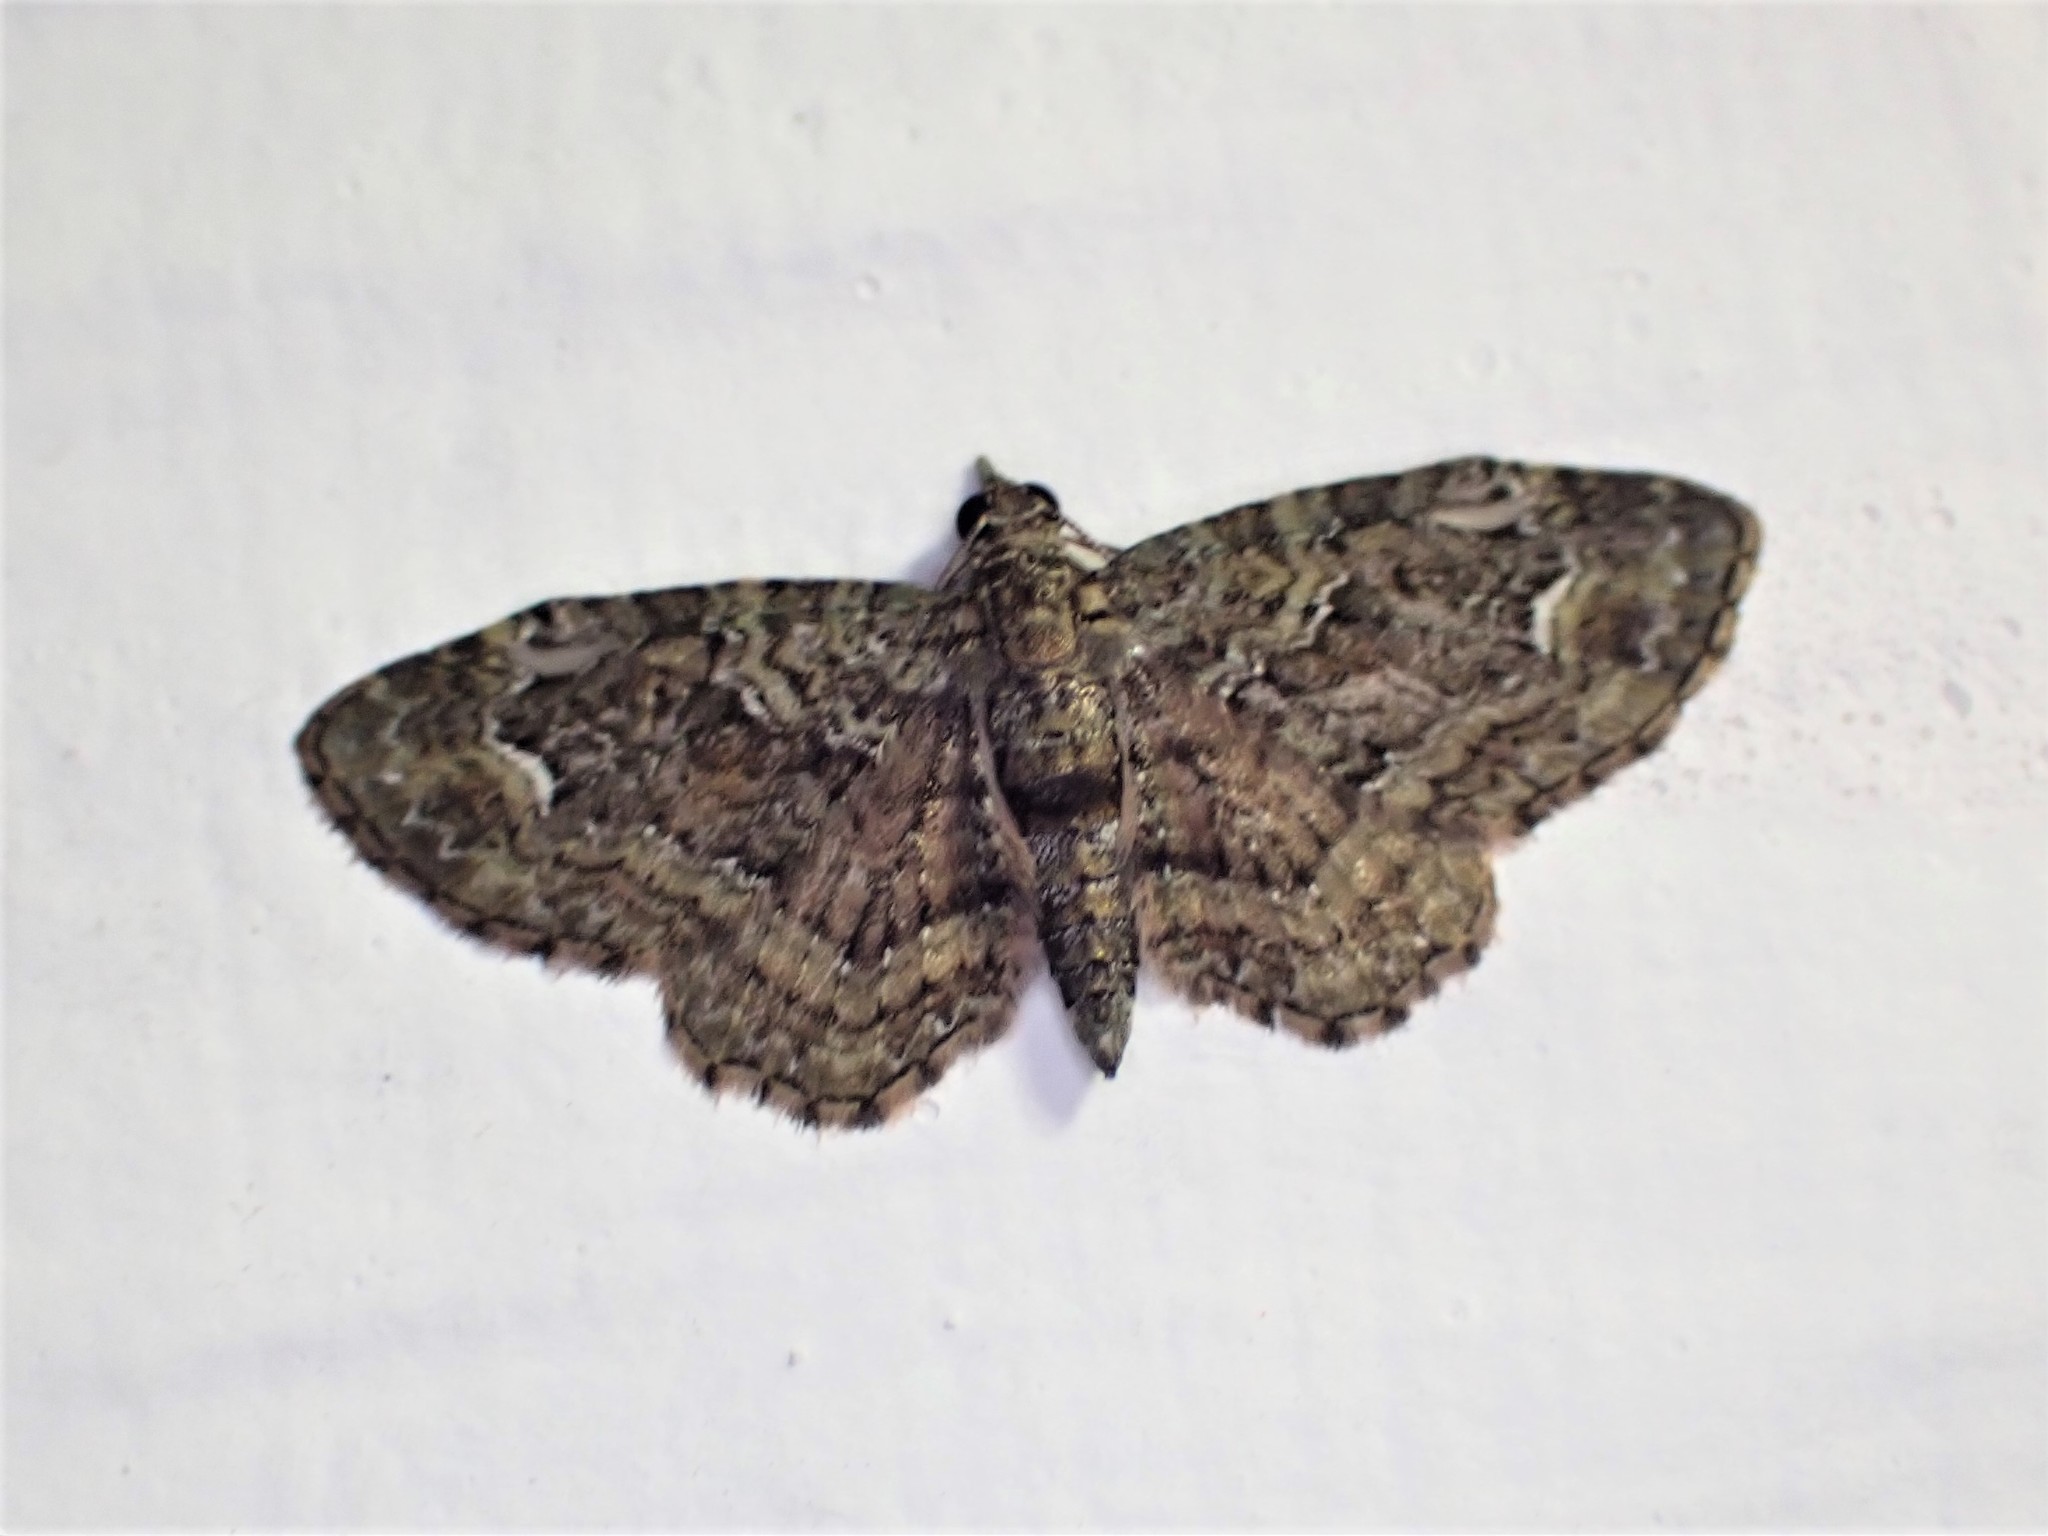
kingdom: Animalia
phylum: Arthropoda
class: Insecta
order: Lepidoptera
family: Geometridae
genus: Pasiphilodes
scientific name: Pasiphilodes testulata
